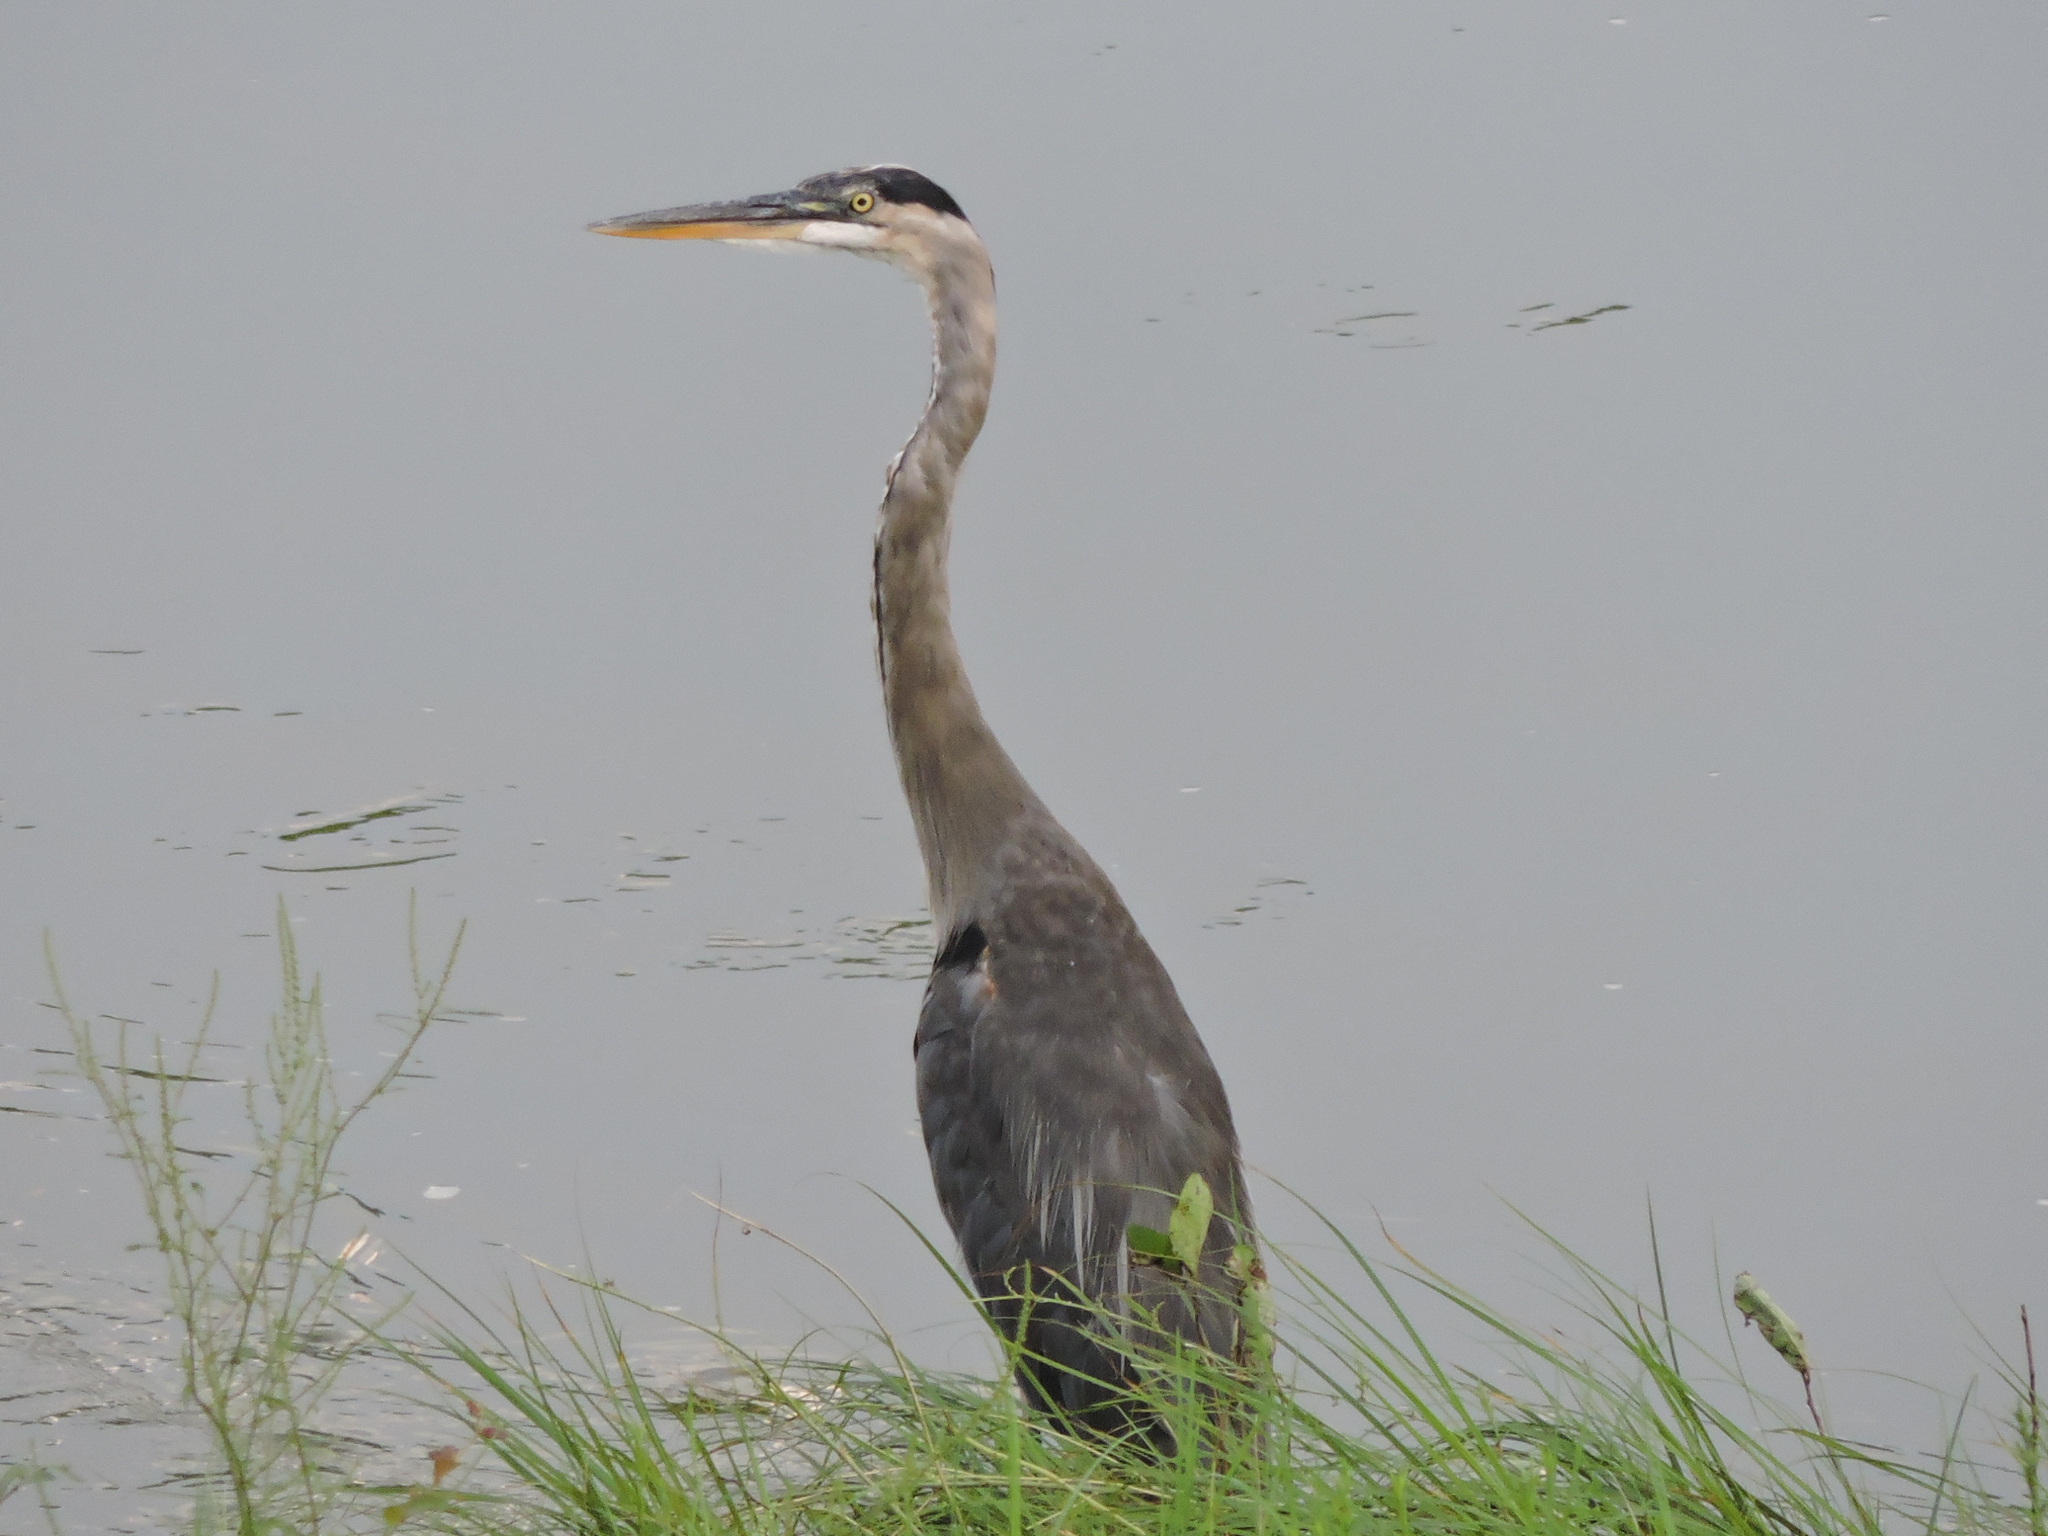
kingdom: Animalia
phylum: Chordata
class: Aves
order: Pelecaniformes
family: Ardeidae
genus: Ardea
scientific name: Ardea herodias
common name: Great blue heron
